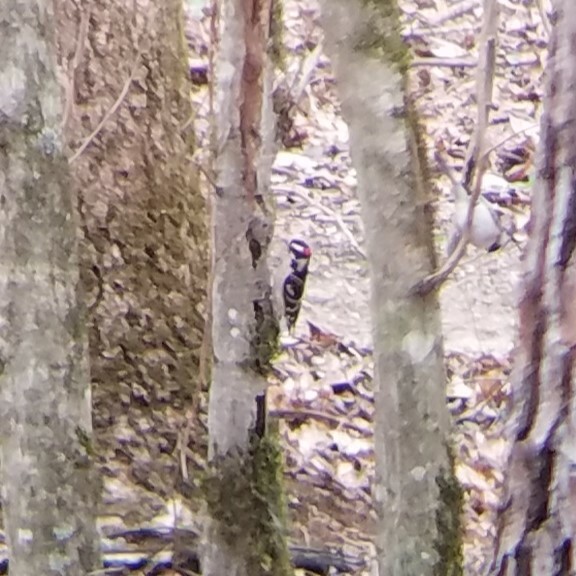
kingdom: Animalia
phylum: Chordata
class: Aves
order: Piciformes
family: Picidae
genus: Dryobates
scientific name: Dryobates pubescens
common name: Downy woodpecker
